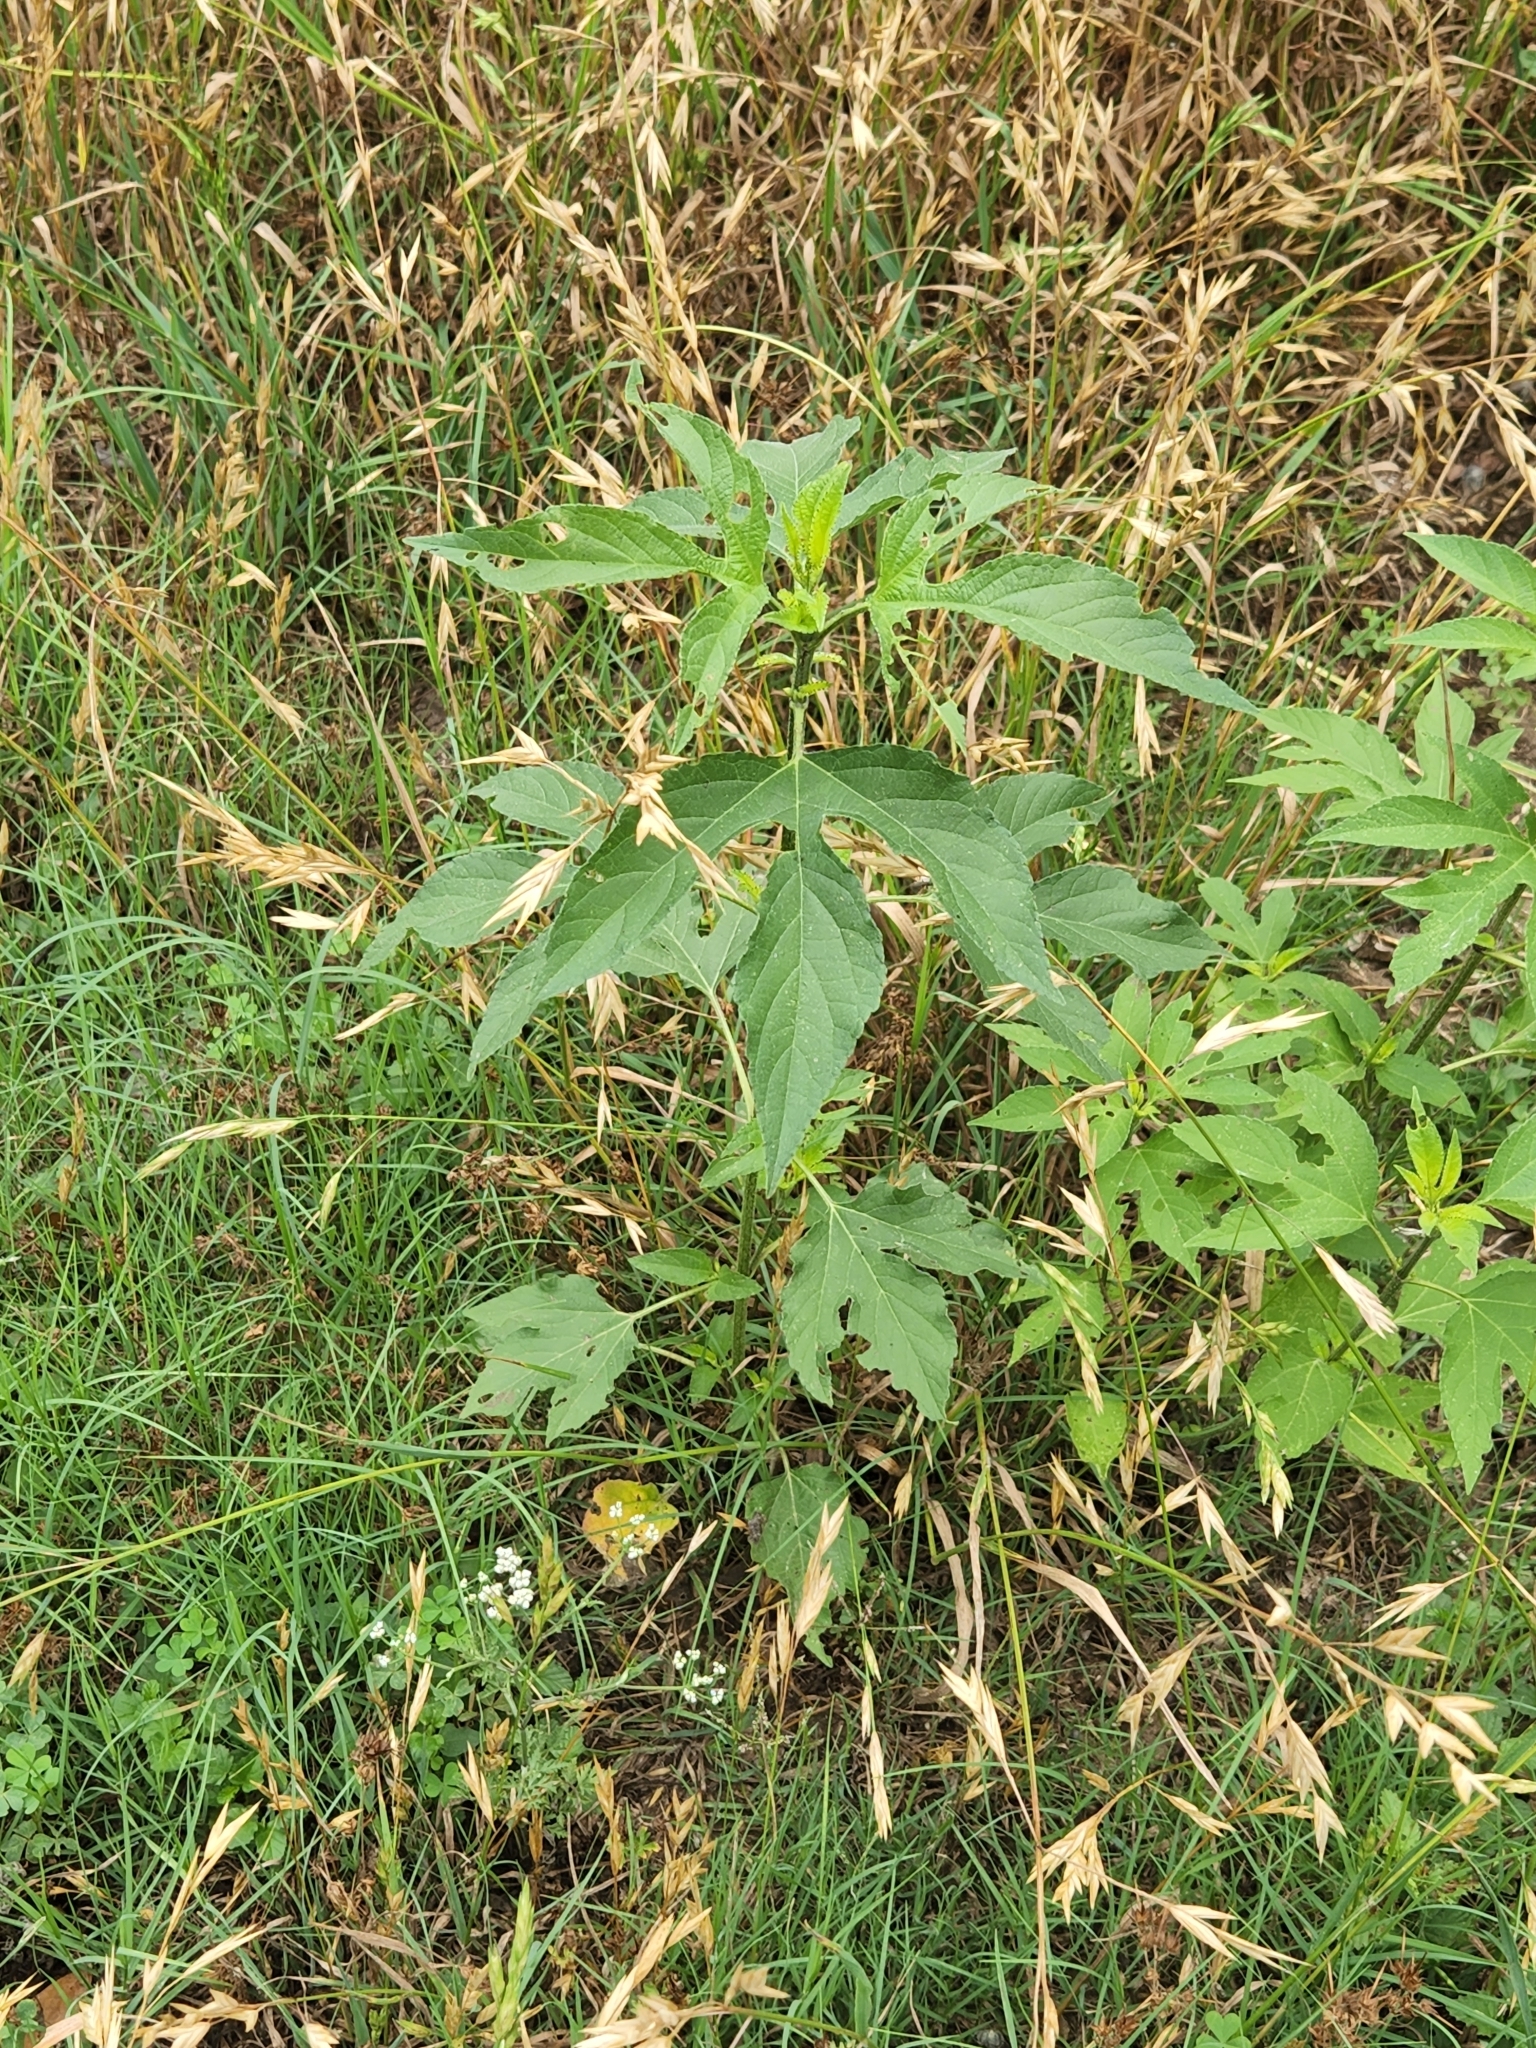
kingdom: Plantae
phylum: Tracheophyta
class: Magnoliopsida
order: Asterales
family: Asteraceae
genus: Ambrosia
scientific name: Ambrosia trifida
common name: Giant ragweed
